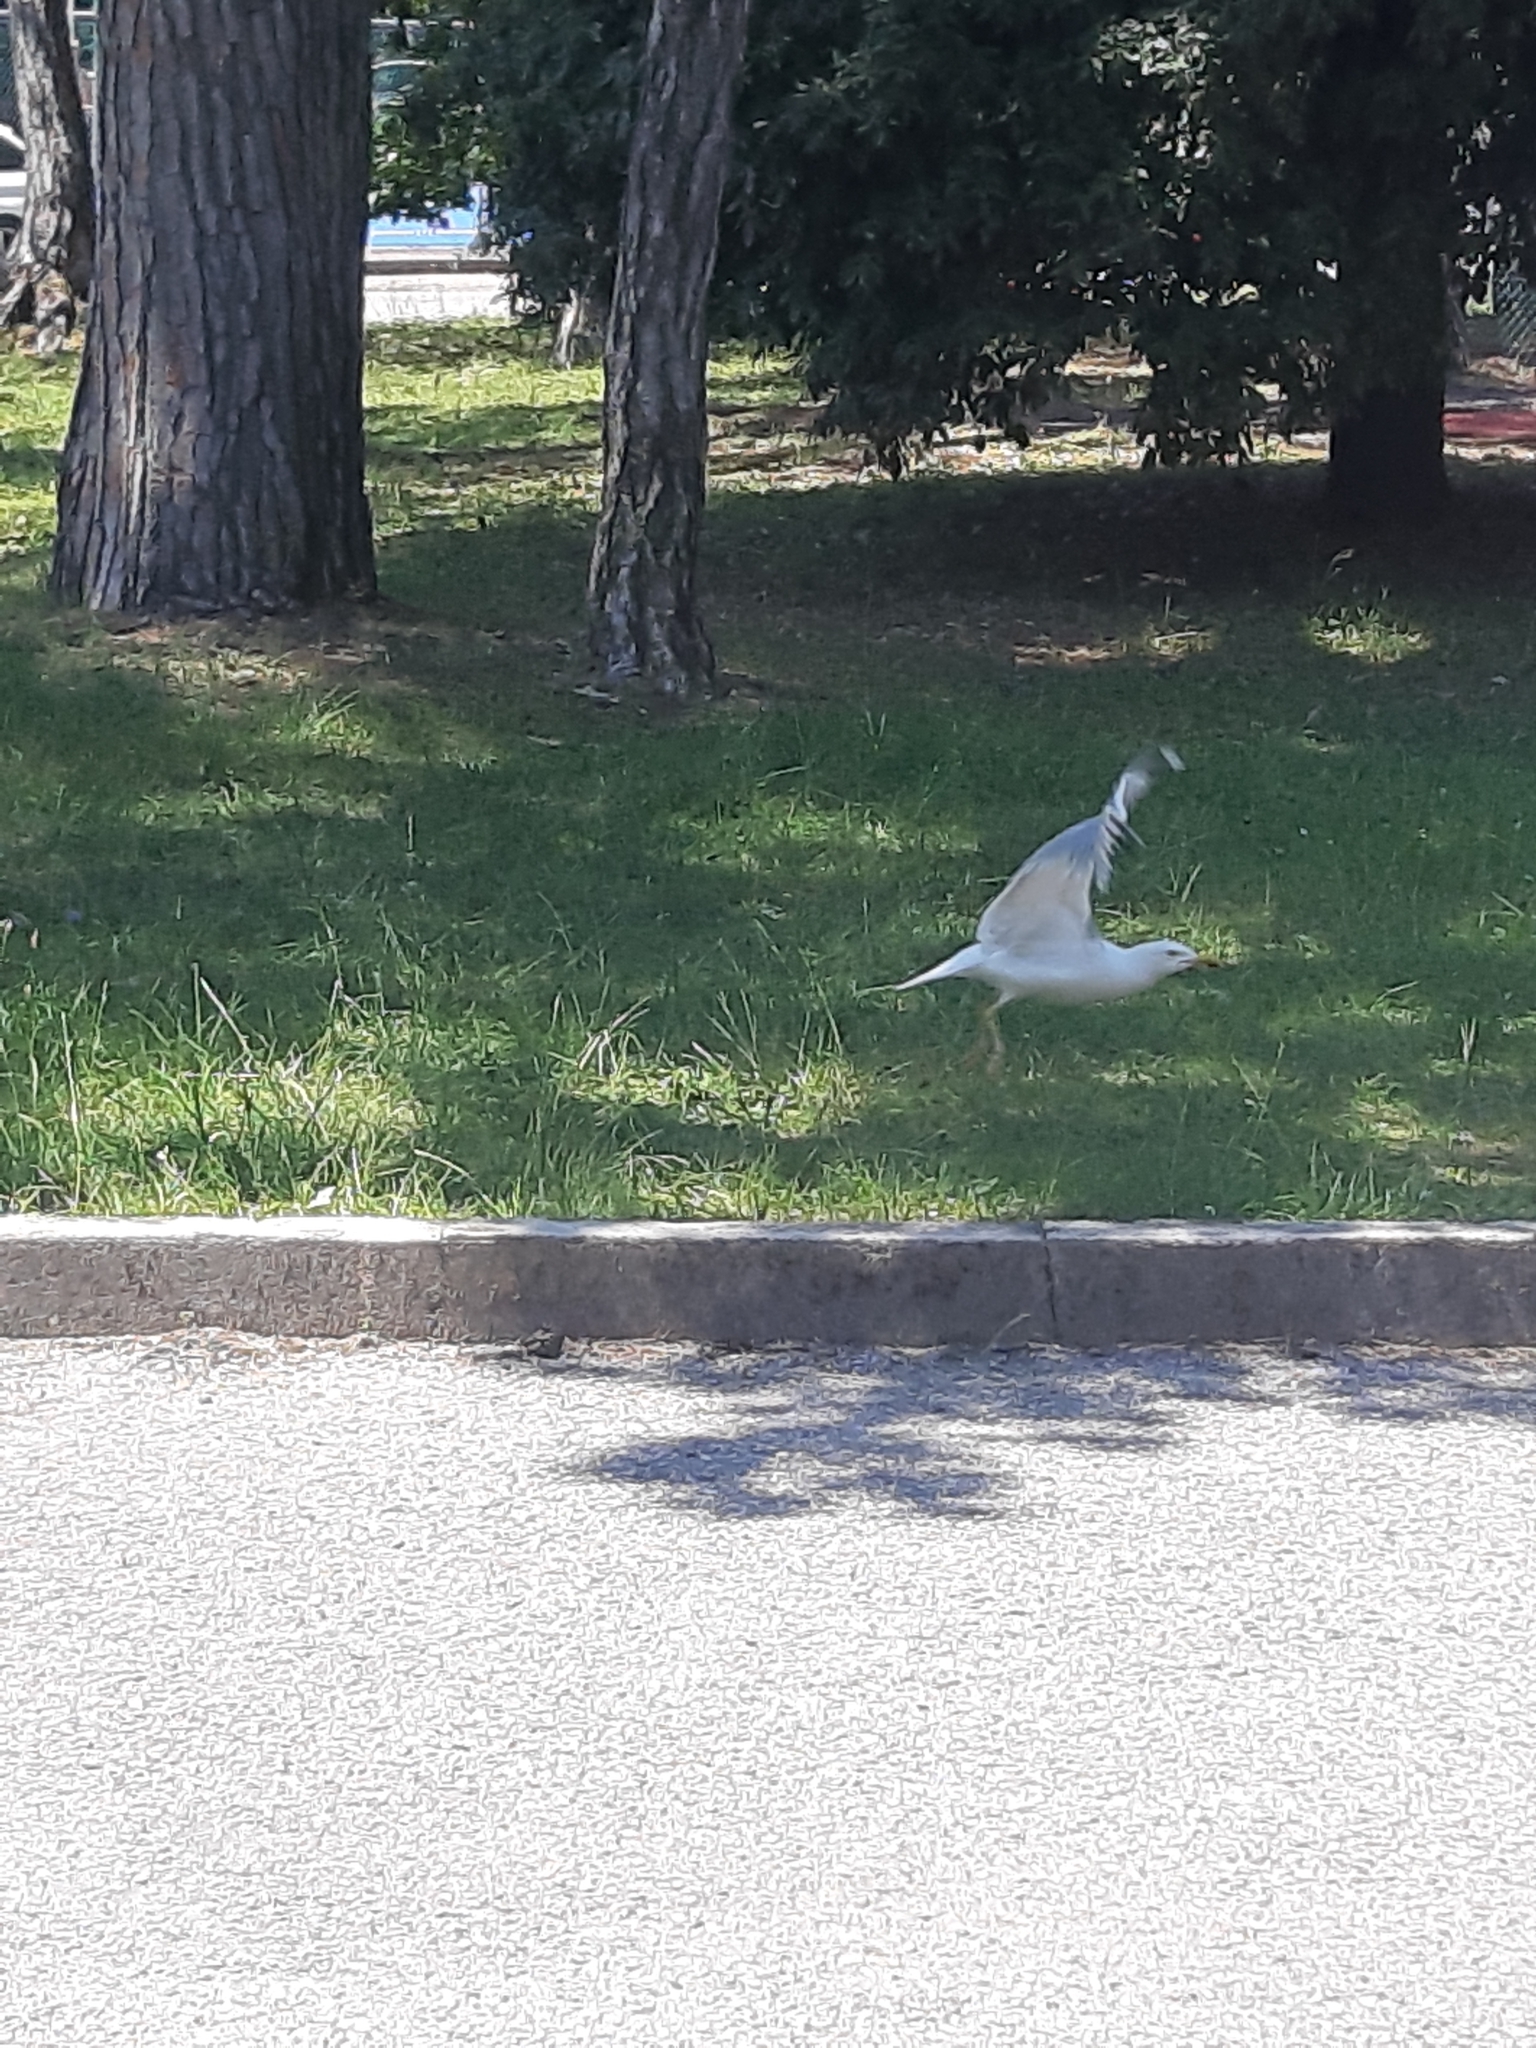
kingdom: Animalia
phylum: Chordata
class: Aves
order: Charadriiformes
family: Laridae
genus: Larus
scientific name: Larus michahellis
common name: Yellow-legged gull
